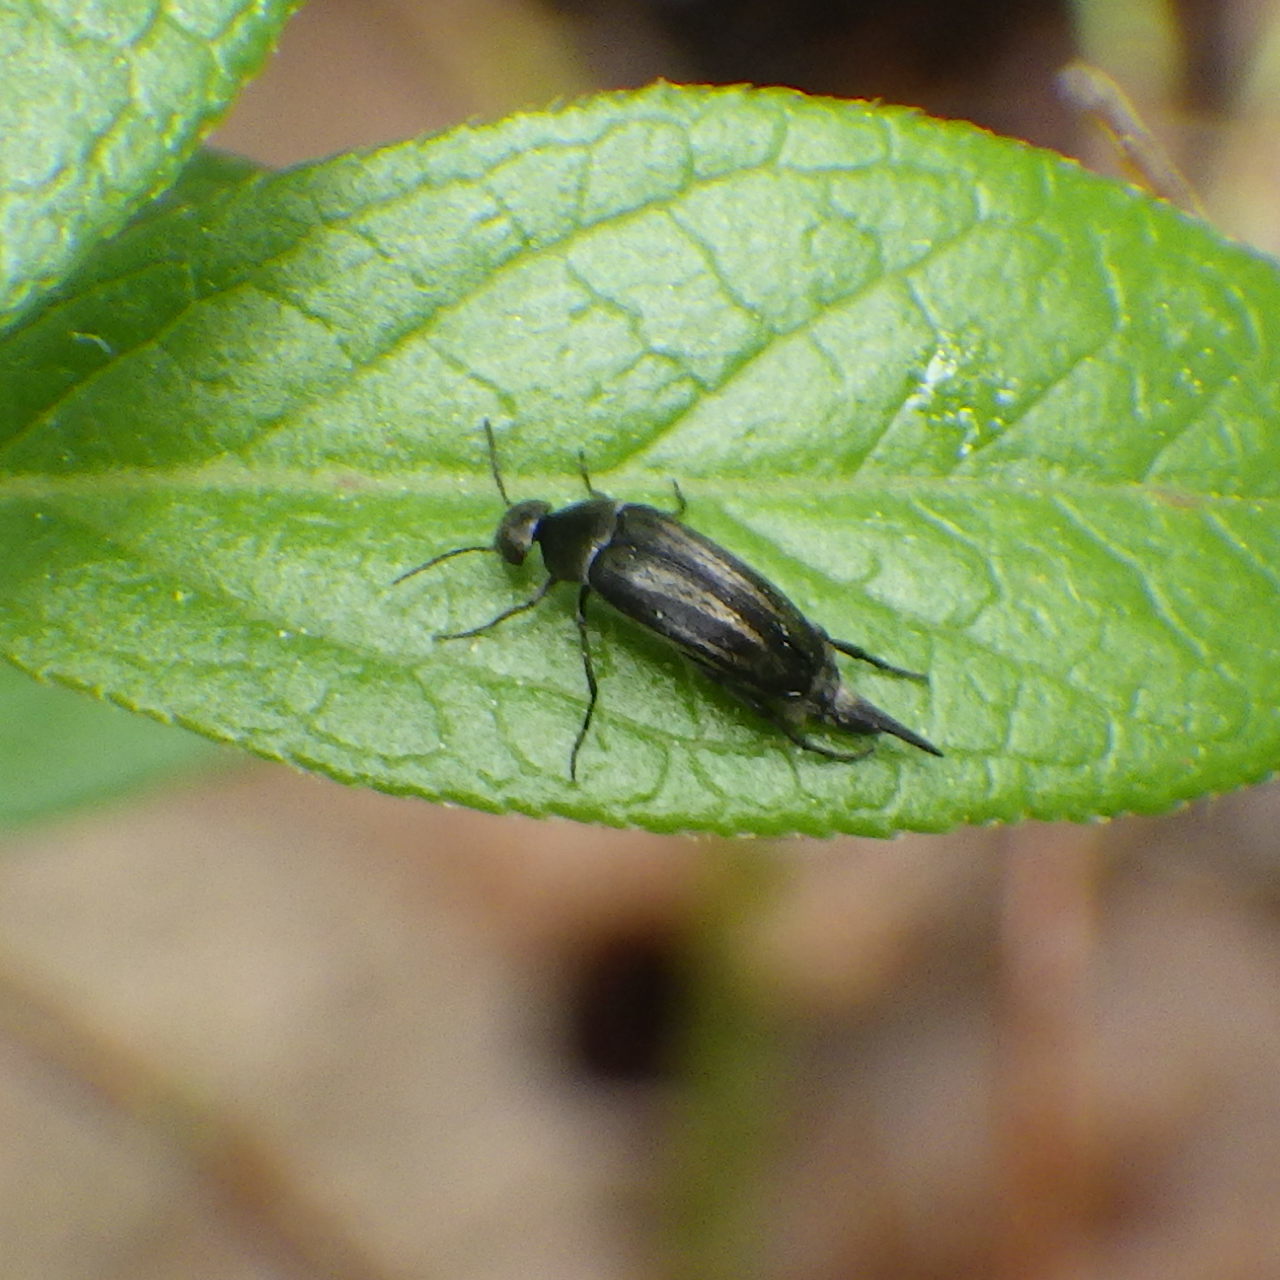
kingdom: Animalia
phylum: Arthropoda
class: Insecta
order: Coleoptera
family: Mordellidae
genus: Mordellistena
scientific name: Mordellistena convicta
